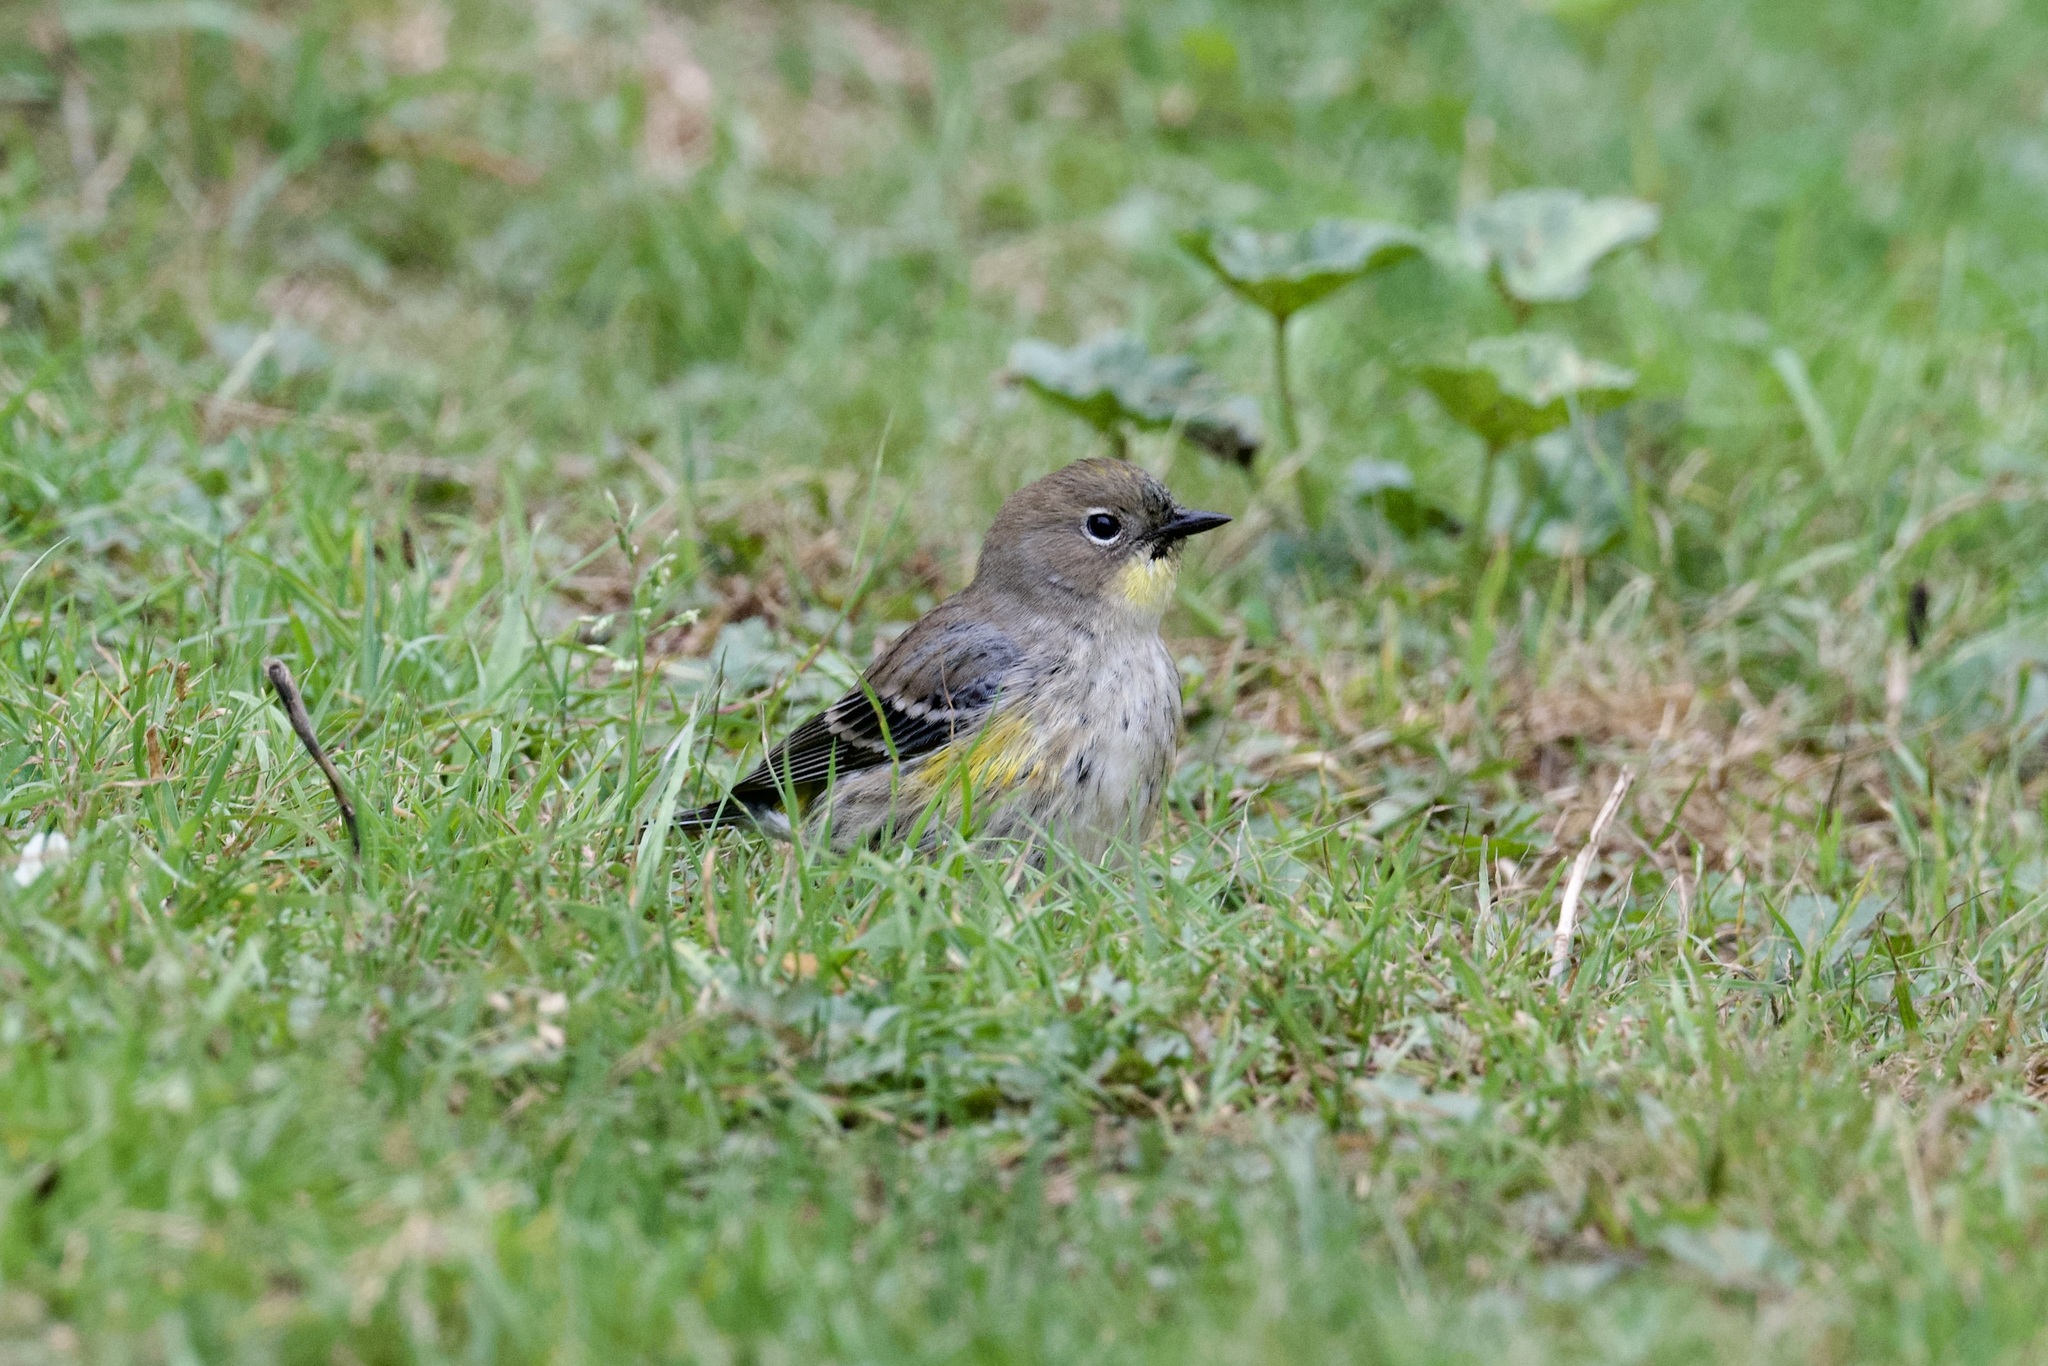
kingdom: Animalia
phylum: Chordata
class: Aves
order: Passeriformes
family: Parulidae
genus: Setophaga
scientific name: Setophaga auduboni
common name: Audubon's warbler
